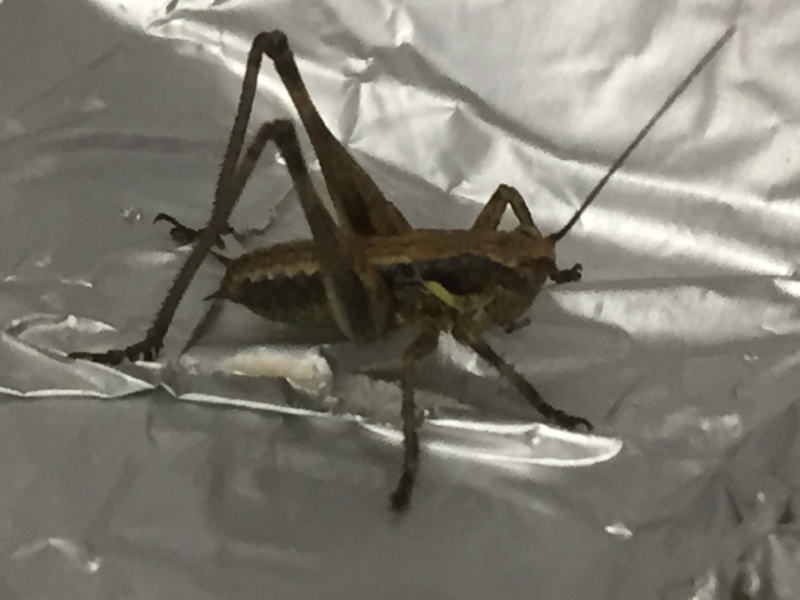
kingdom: Animalia
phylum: Arthropoda
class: Insecta
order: Orthoptera
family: Tettigoniidae
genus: Antaxius
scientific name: Antaxius spinibrachius
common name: Spiny-legged bush-cricket
